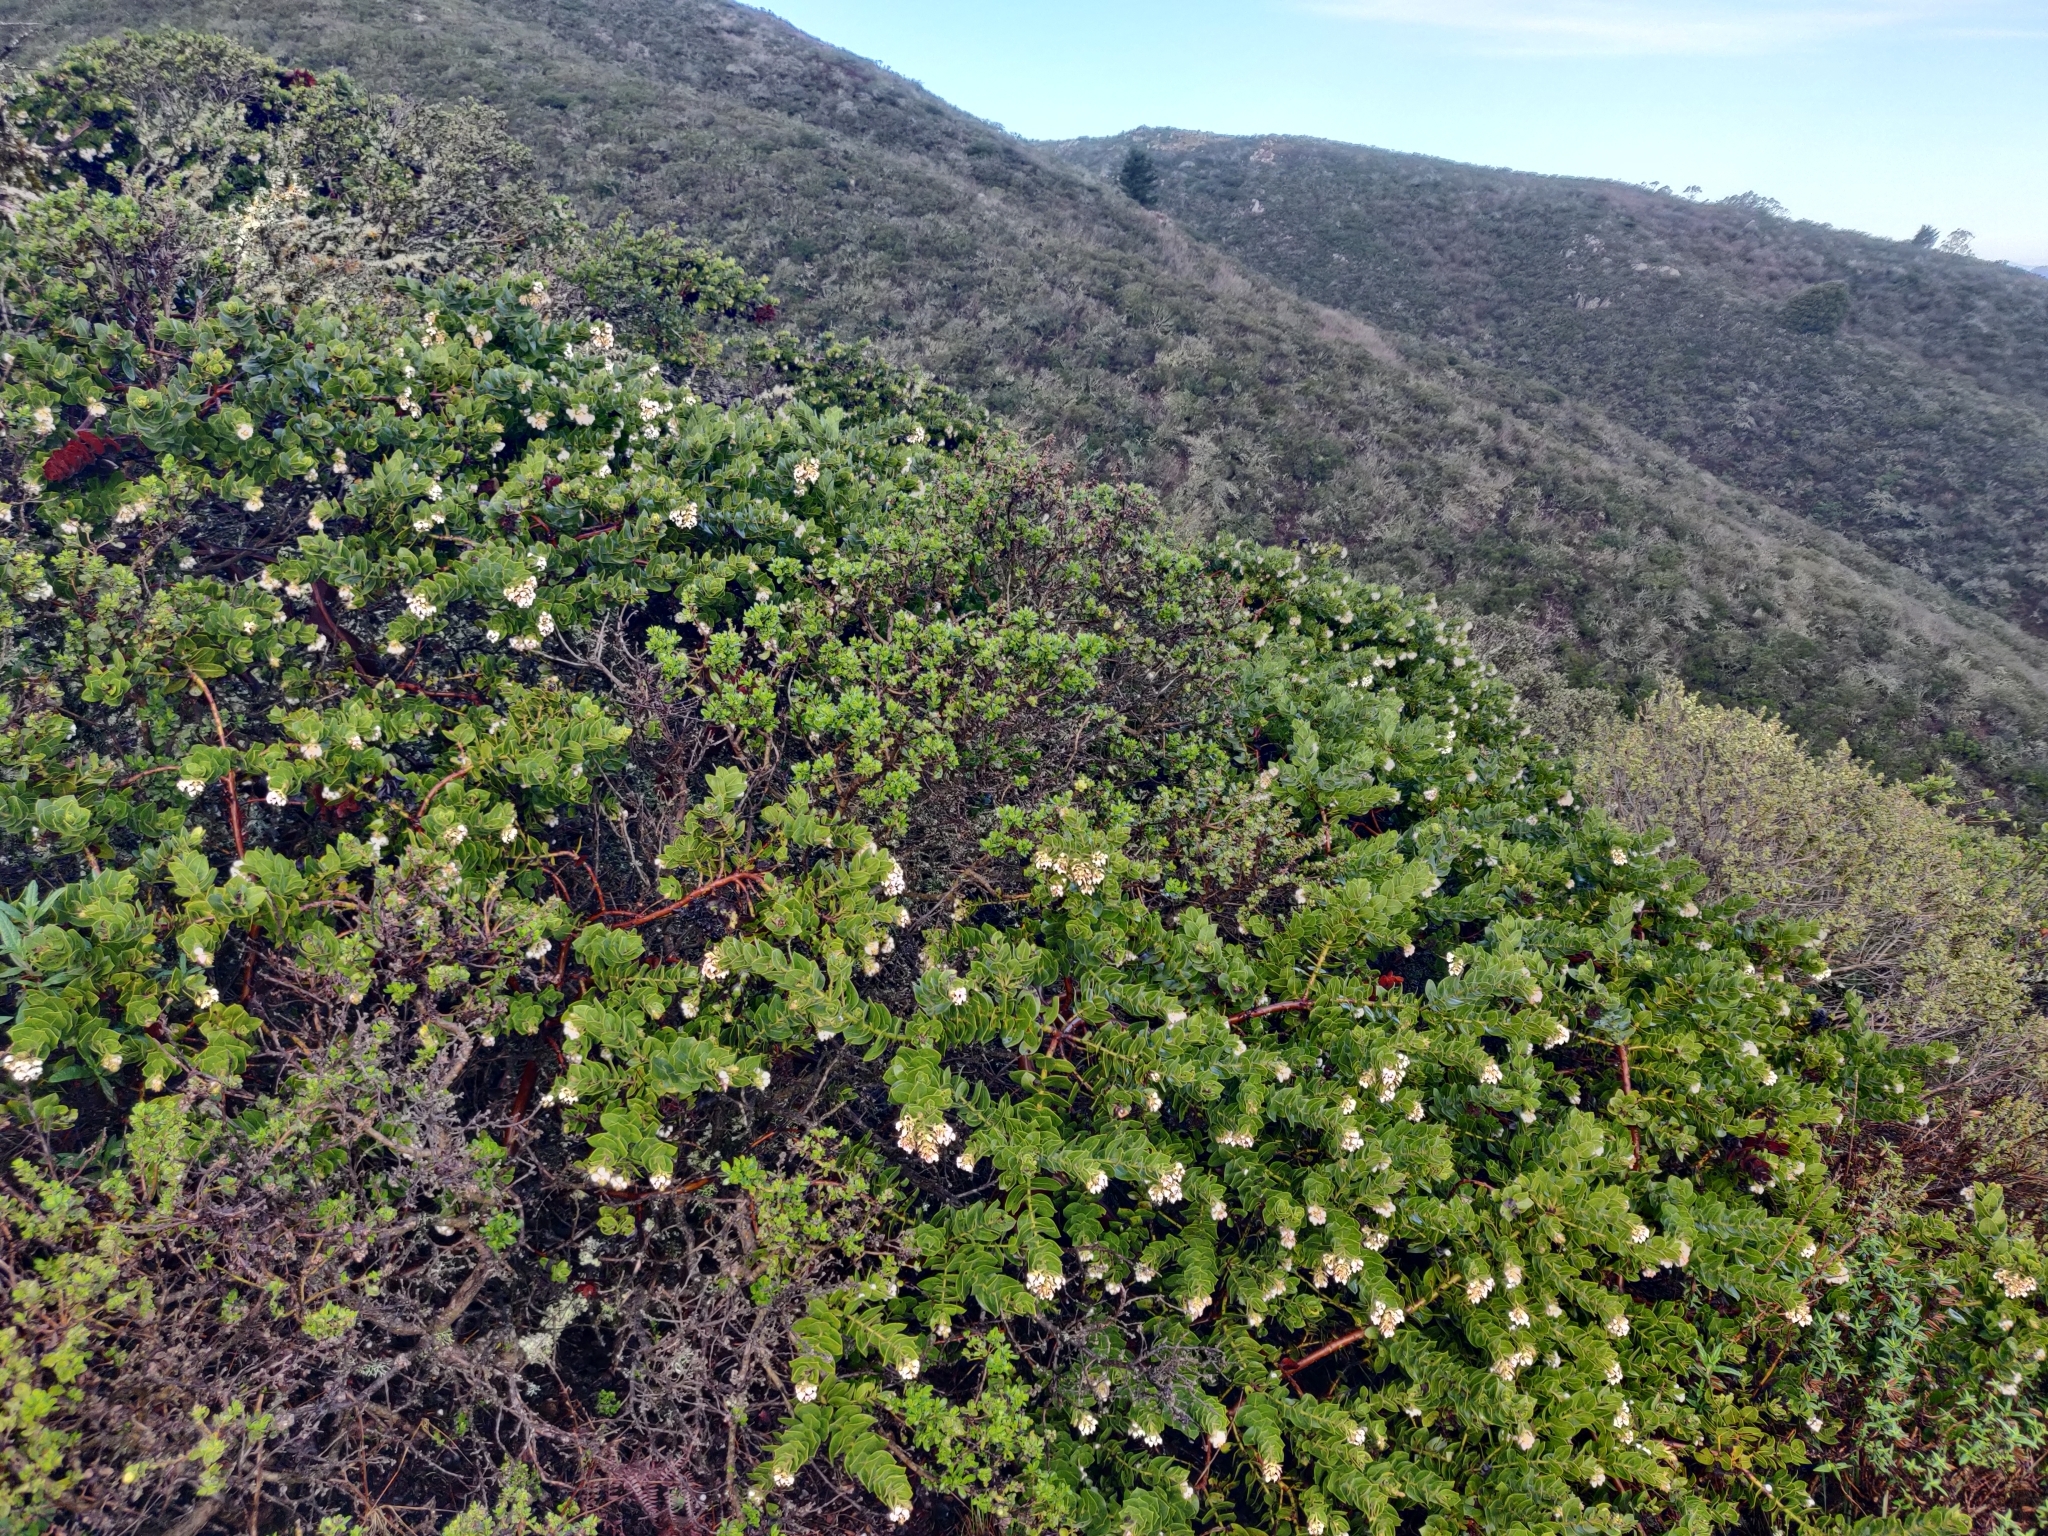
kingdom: Plantae
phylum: Tracheophyta
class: Magnoliopsida
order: Ericales
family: Ericaceae
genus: Arctostaphylos
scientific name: Arctostaphylos imbricata
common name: San bruno mountain manzanita
